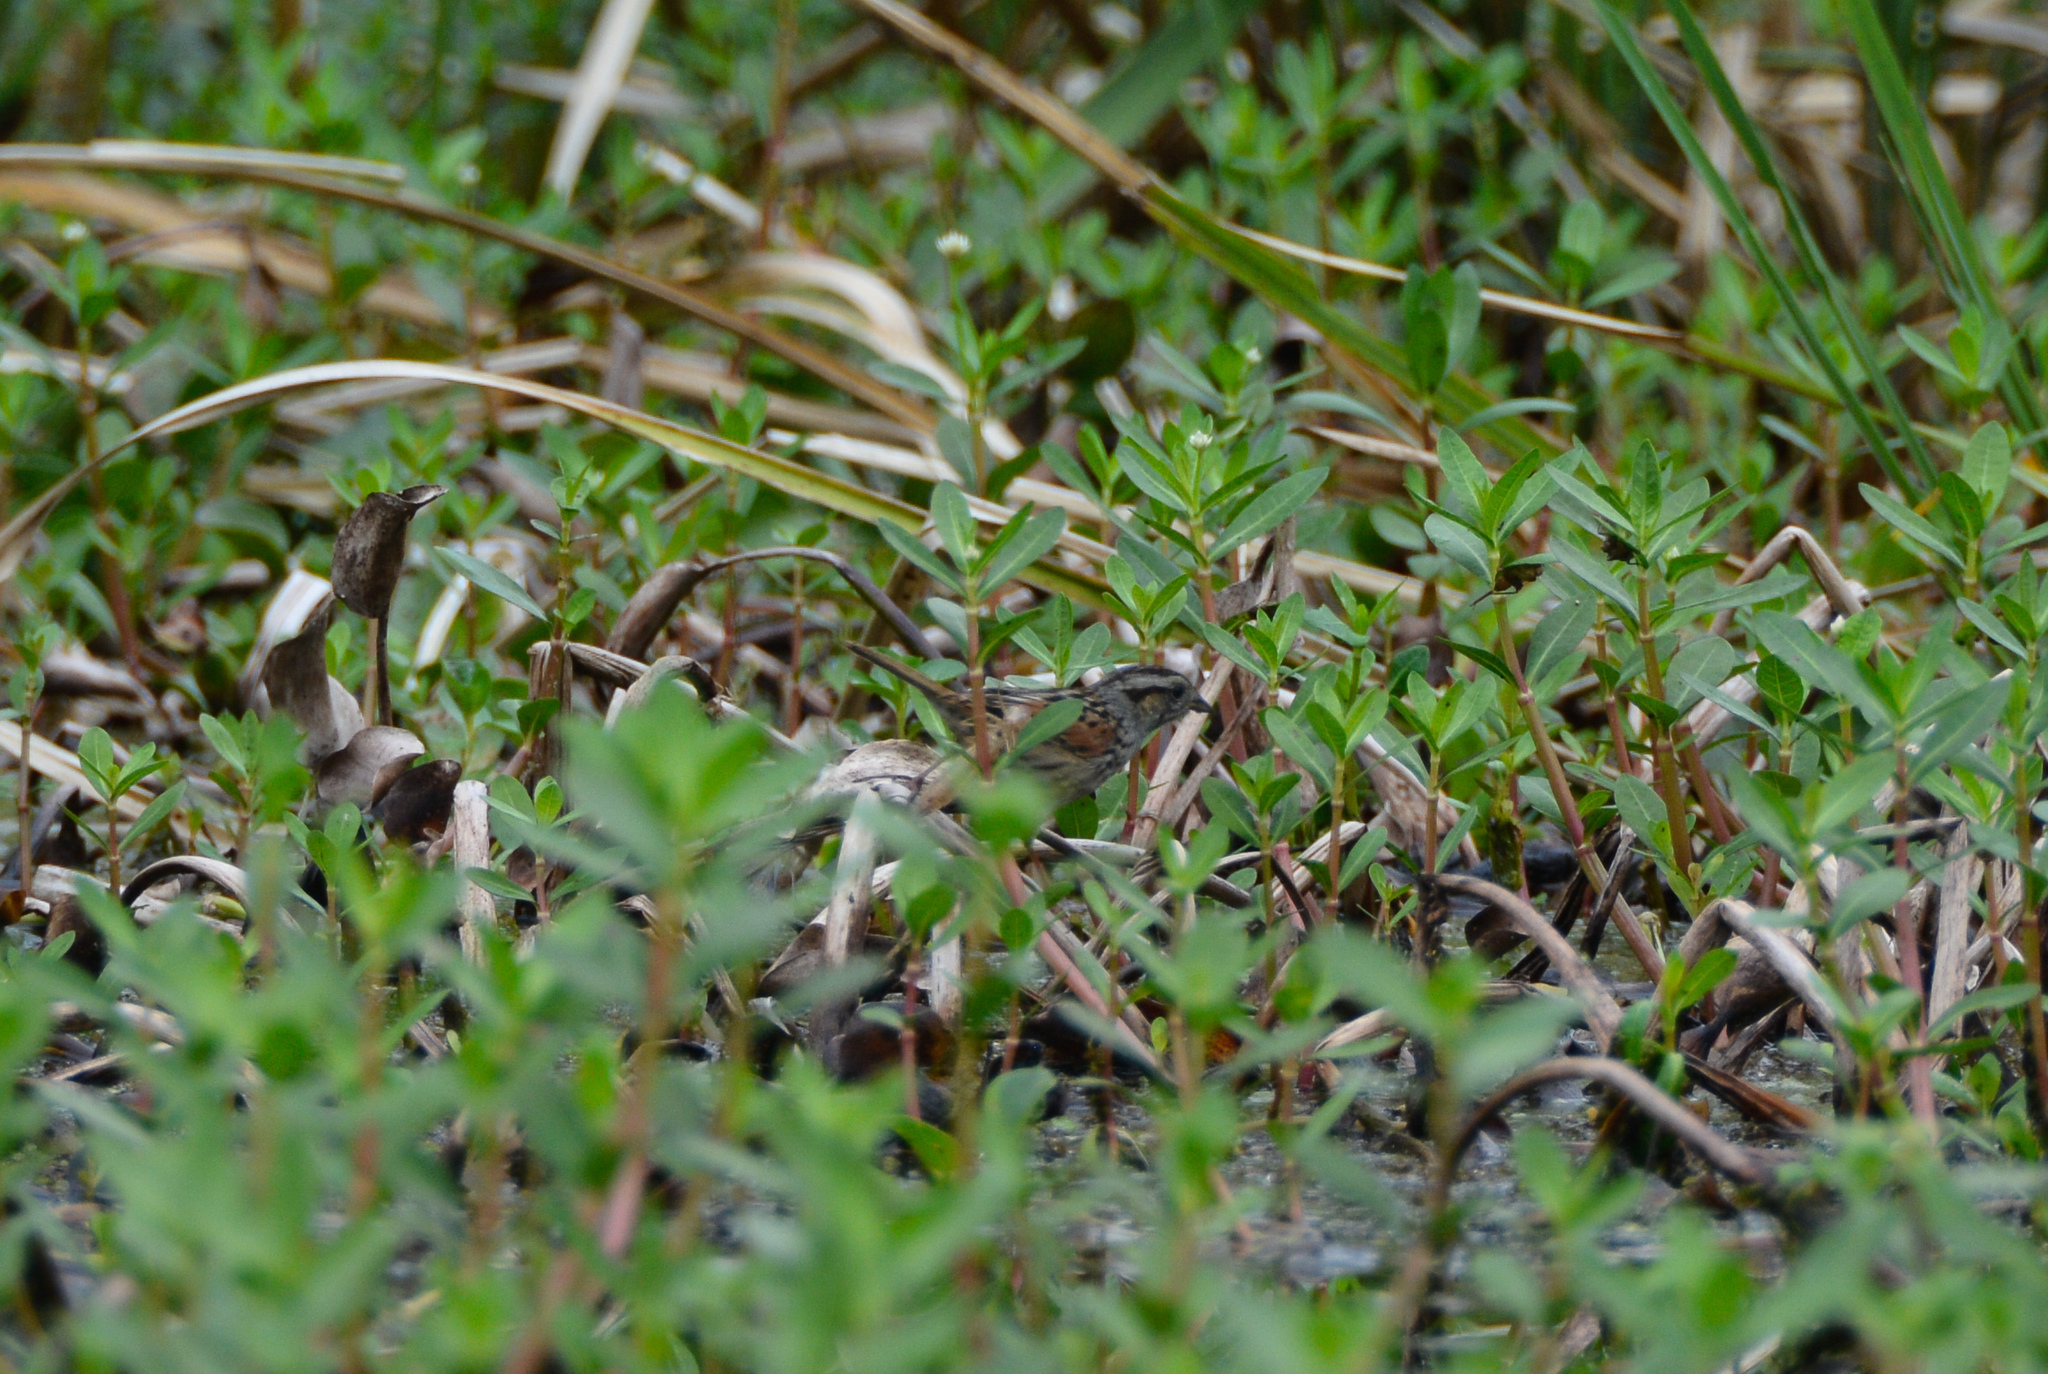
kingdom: Animalia
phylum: Chordata
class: Aves
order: Passeriformes
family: Passerellidae
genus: Melospiza
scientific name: Melospiza georgiana
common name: Swamp sparrow
